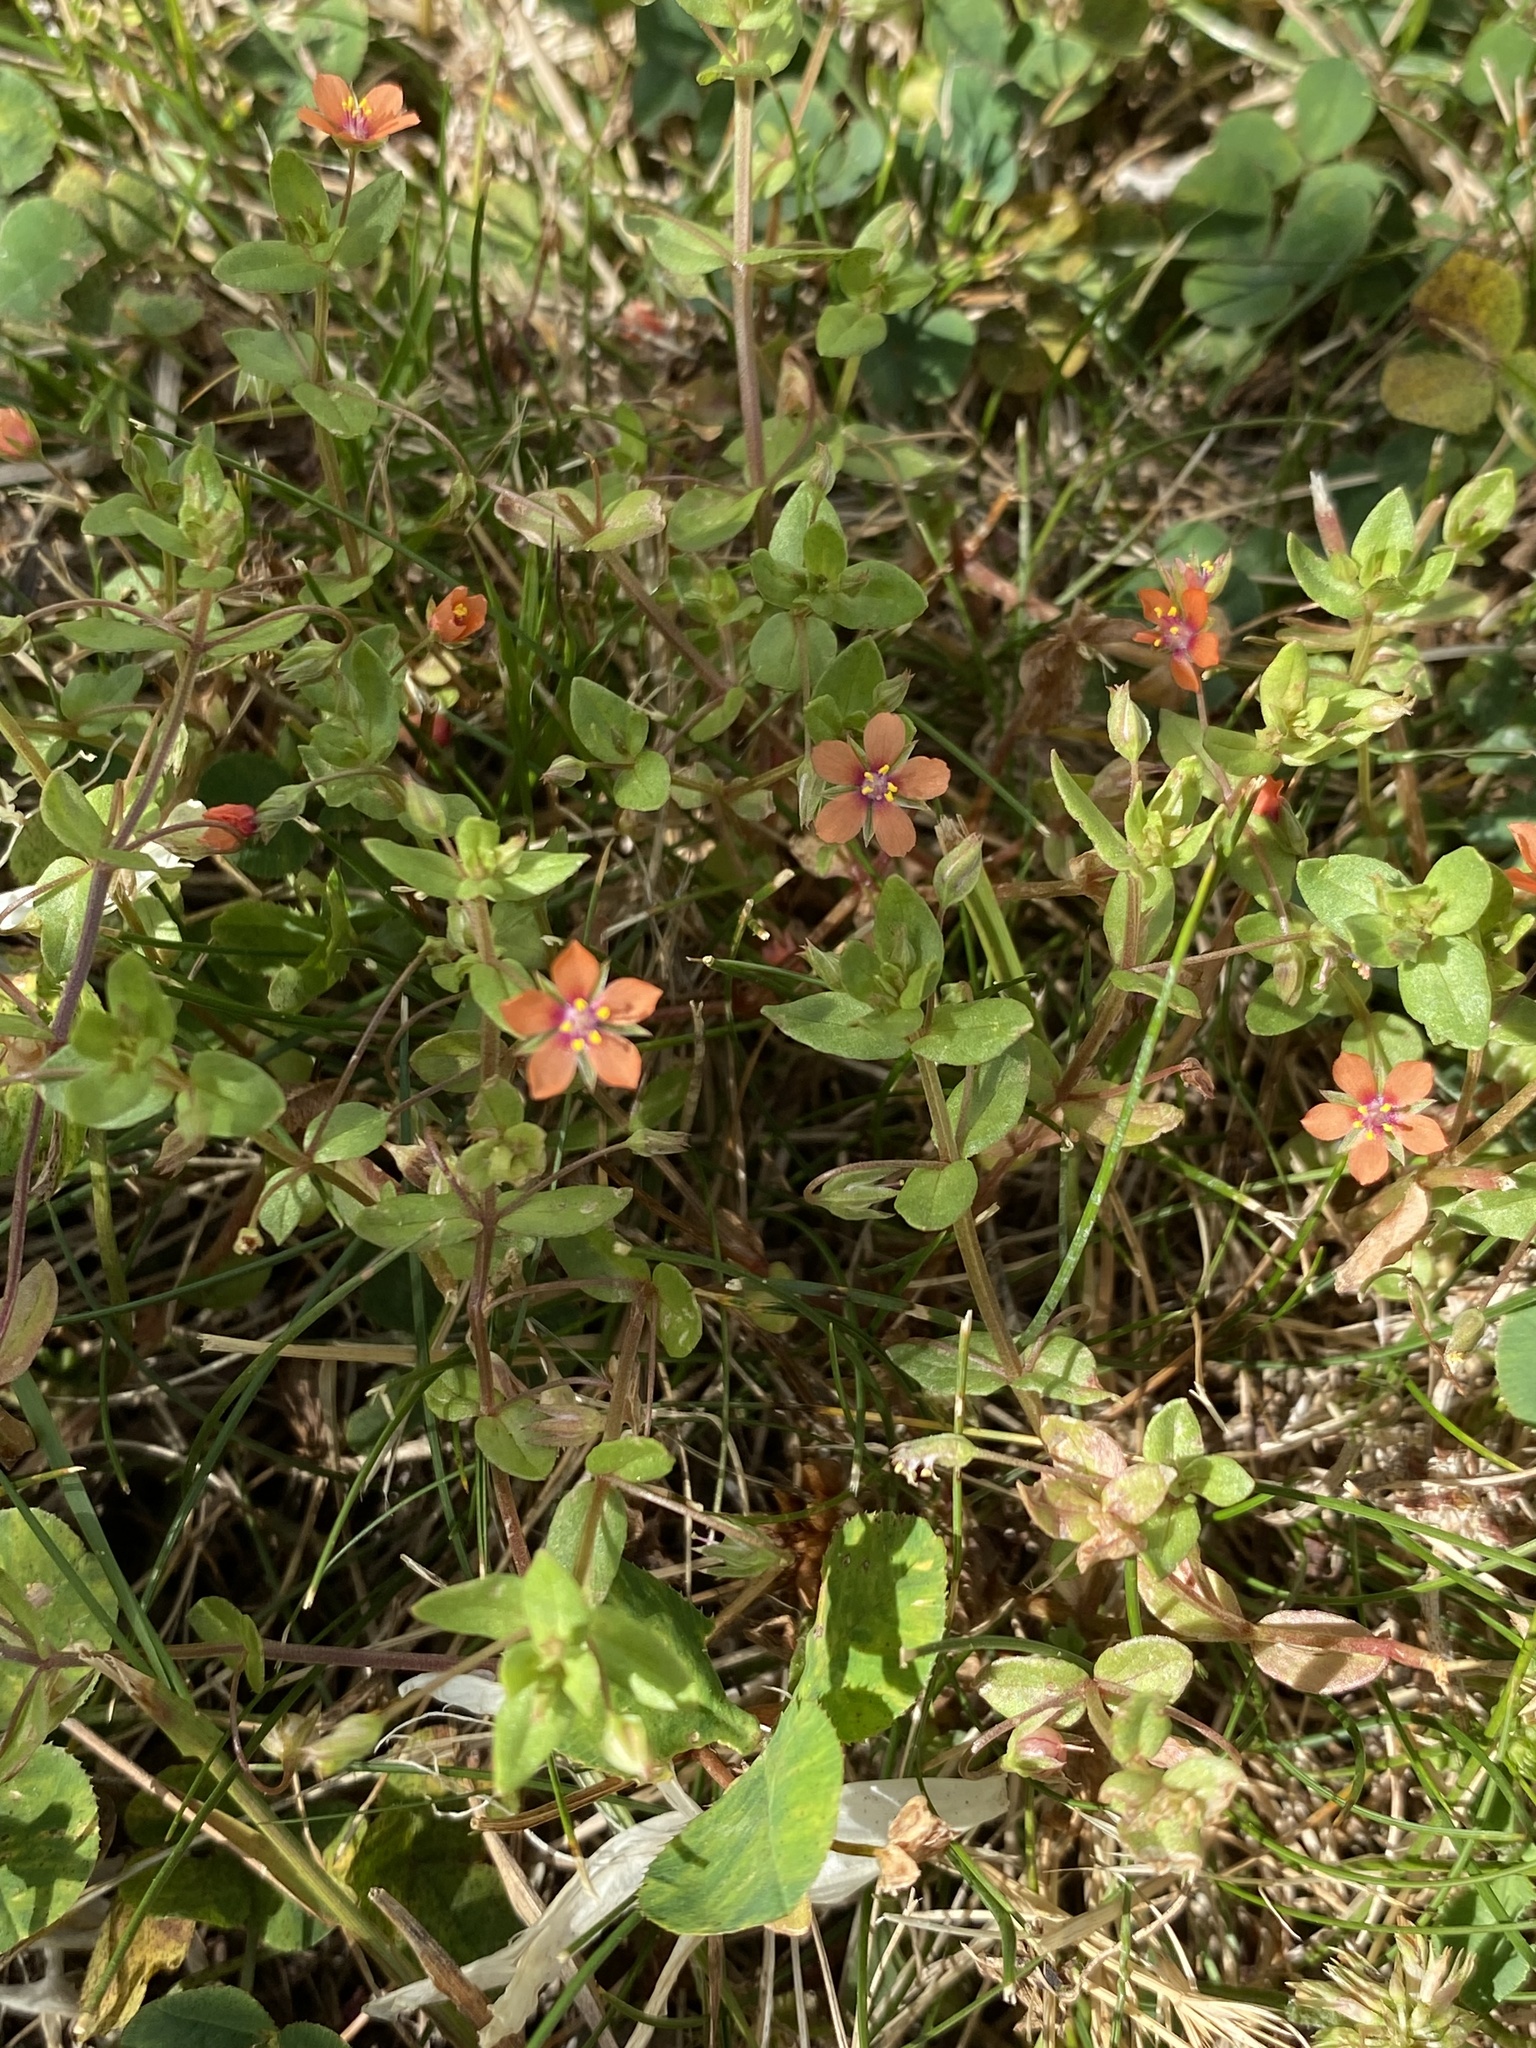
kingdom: Plantae
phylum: Tracheophyta
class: Magnoliopsida
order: Ericales
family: Primulaceae
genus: Lysimachia
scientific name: Lysimachia arvensis
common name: Scarlet pimpernel
